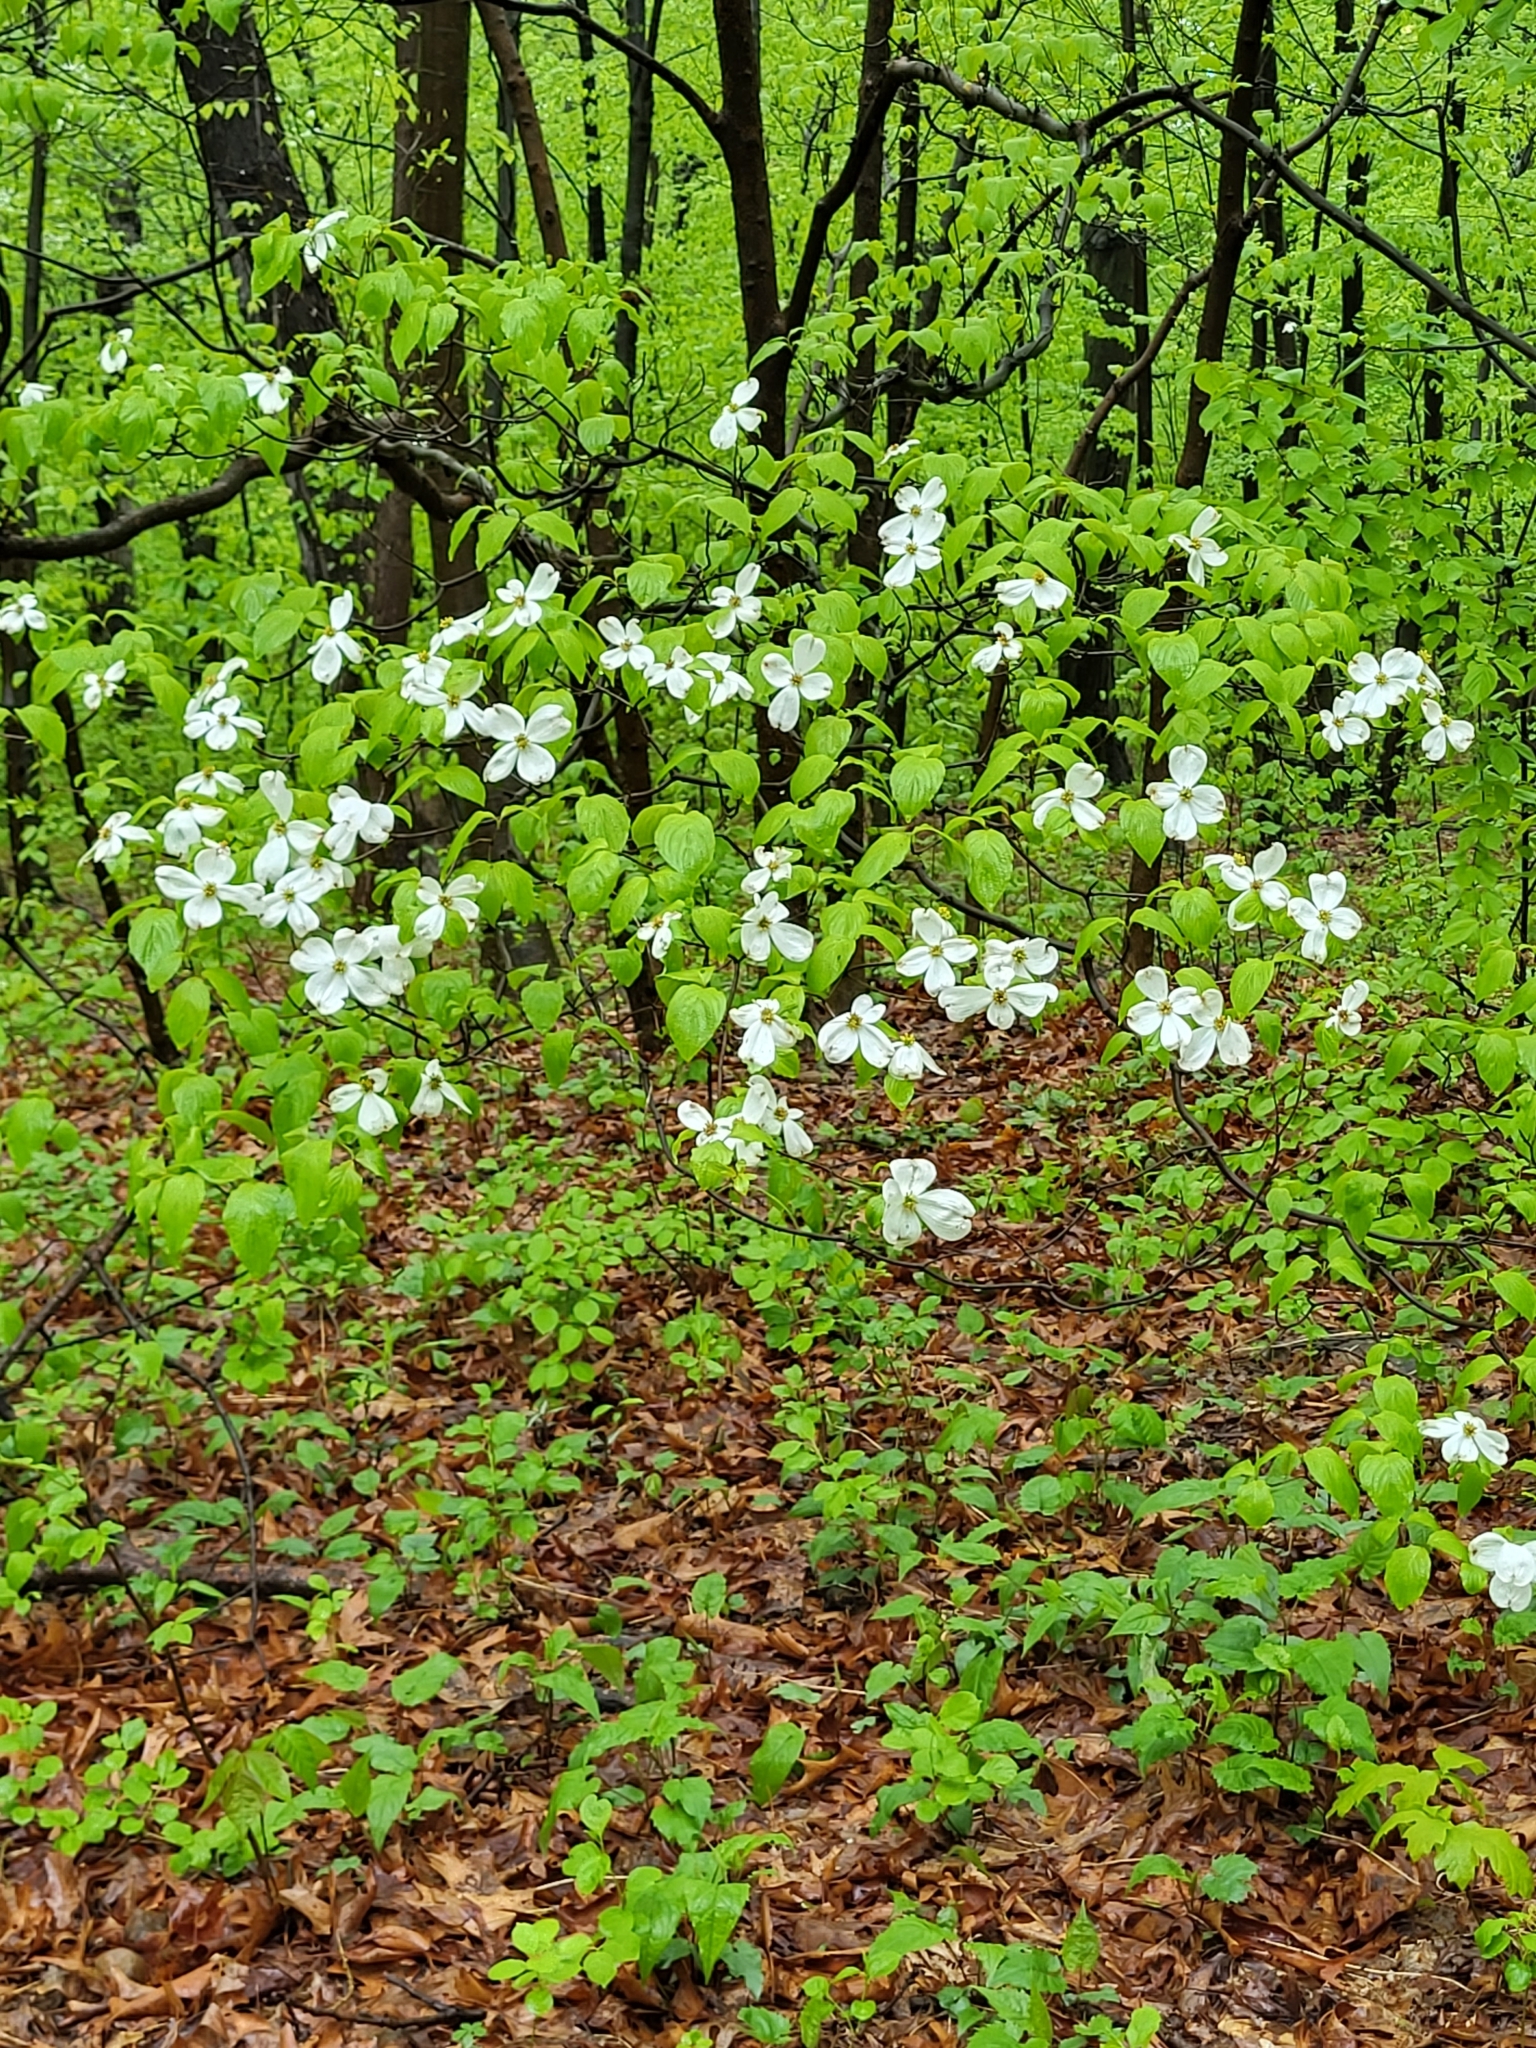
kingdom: Plantae
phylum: Tracheophyta
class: Magnoliopsida
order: Cornales
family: Cornaceae
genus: Cornus
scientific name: Cornus florida
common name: Flowering dogwood
